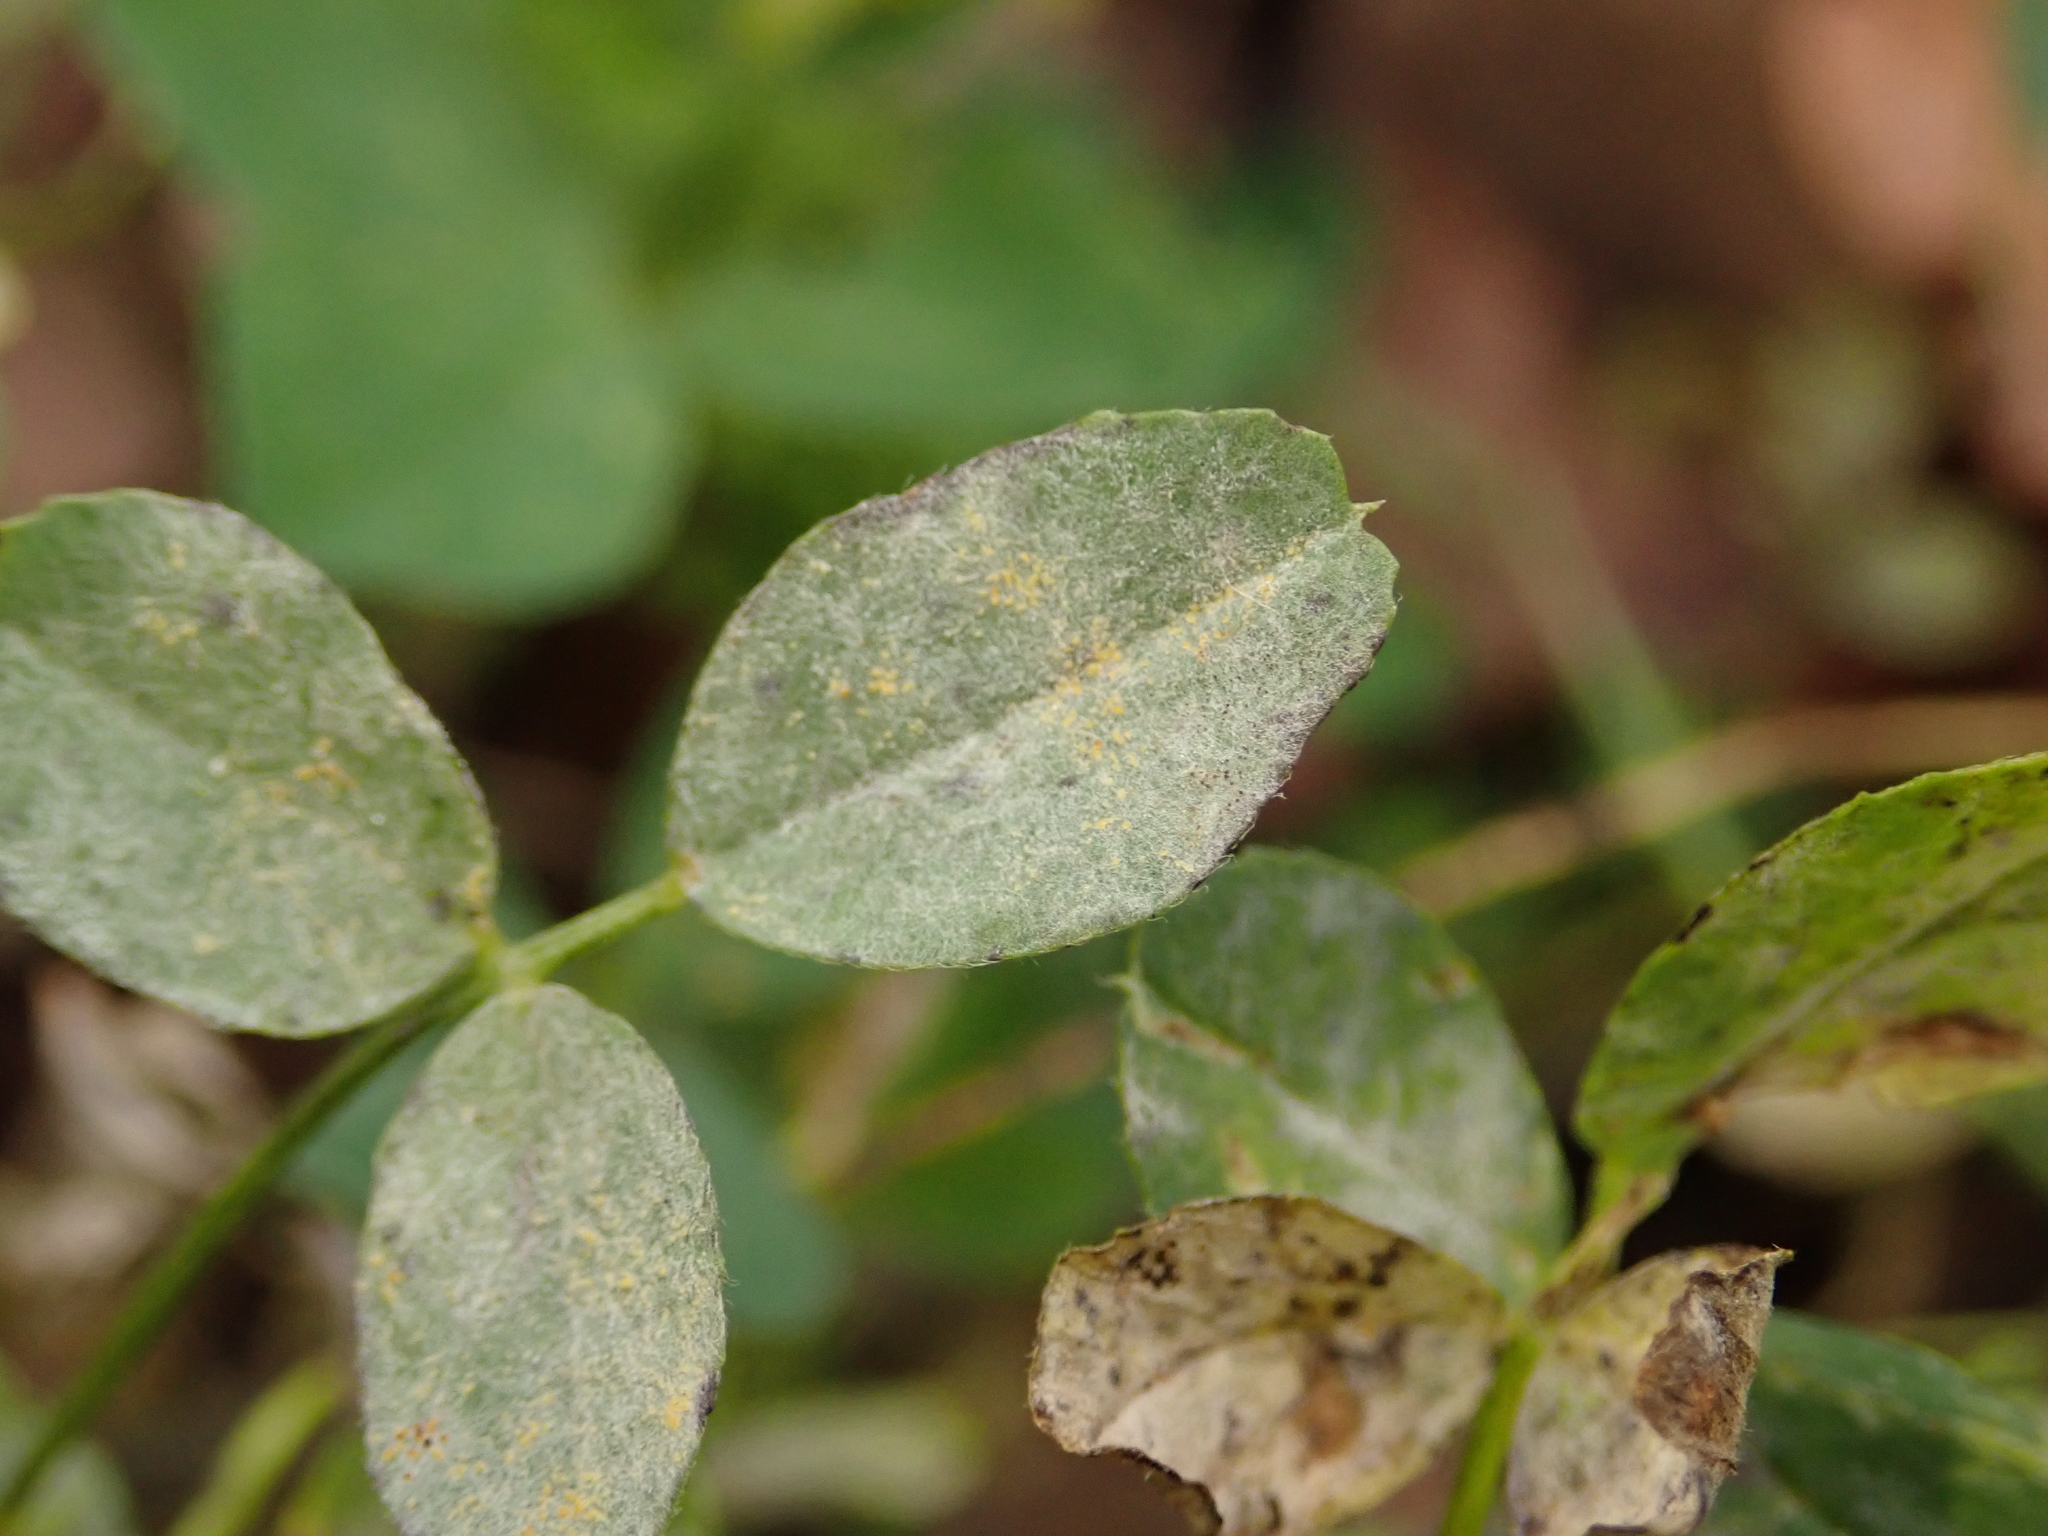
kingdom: Fungi
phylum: Ascomycota
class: Leotiomycetes
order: Helotiales
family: Erysiphaceae
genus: Erysiphe
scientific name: Erysiphe trifoliorum
